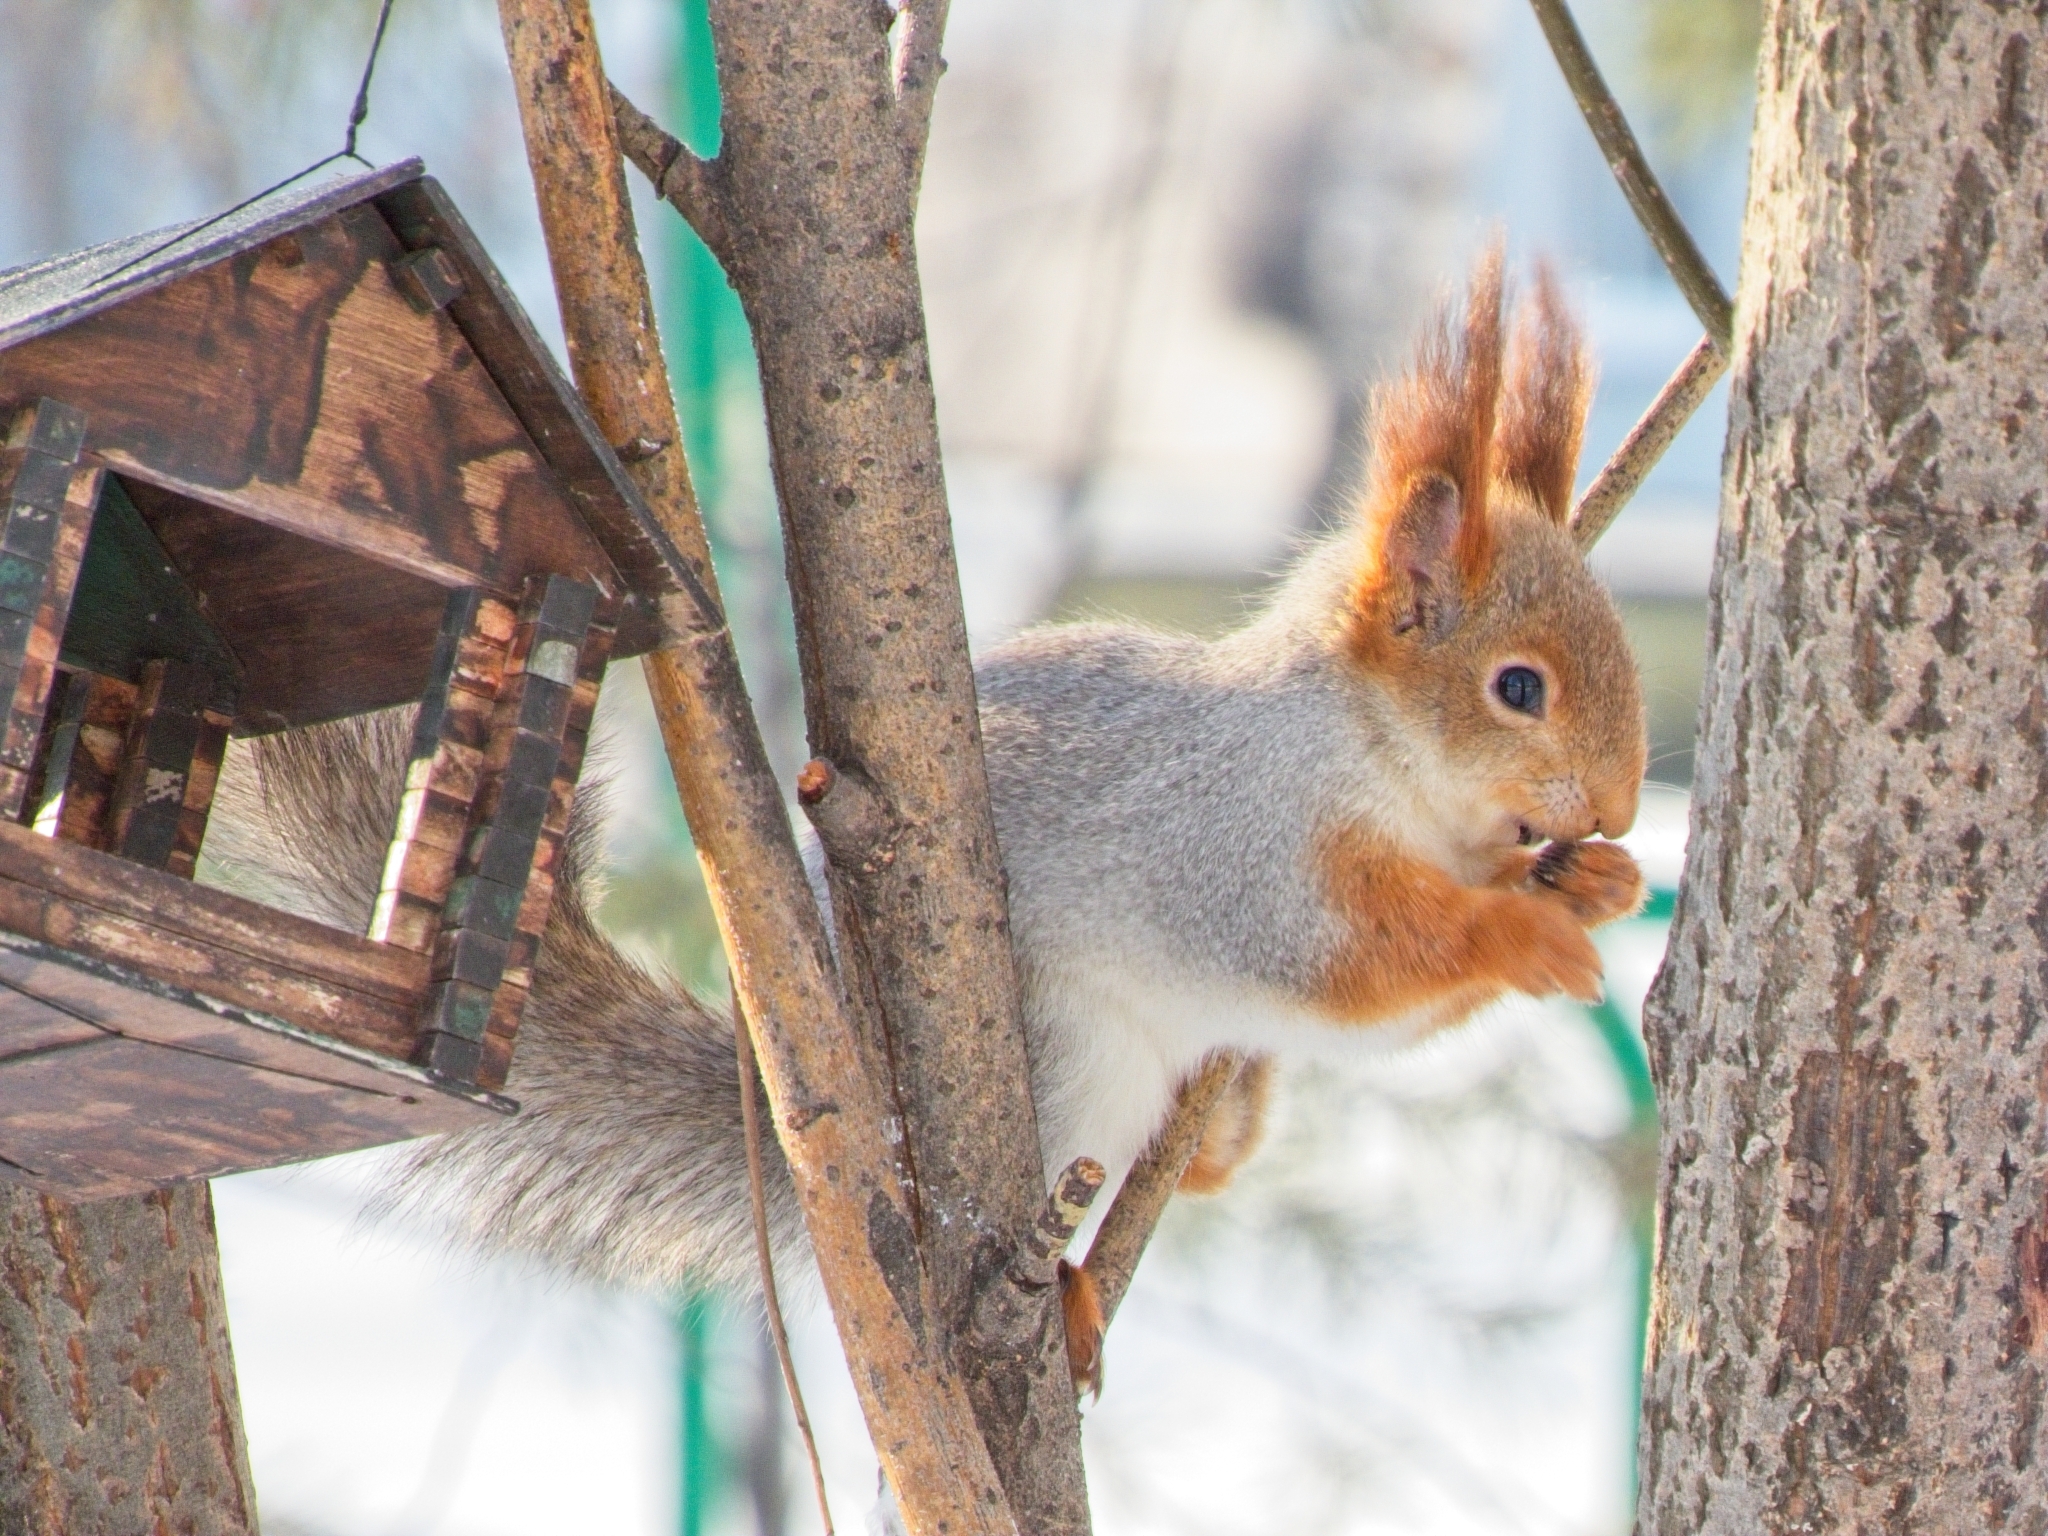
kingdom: Animalia
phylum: Chordata
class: Mammalia
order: Rodentia
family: Sciuridae
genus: Sciurus
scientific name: Sciurus vulgaris
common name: Eurasian red squirrel
